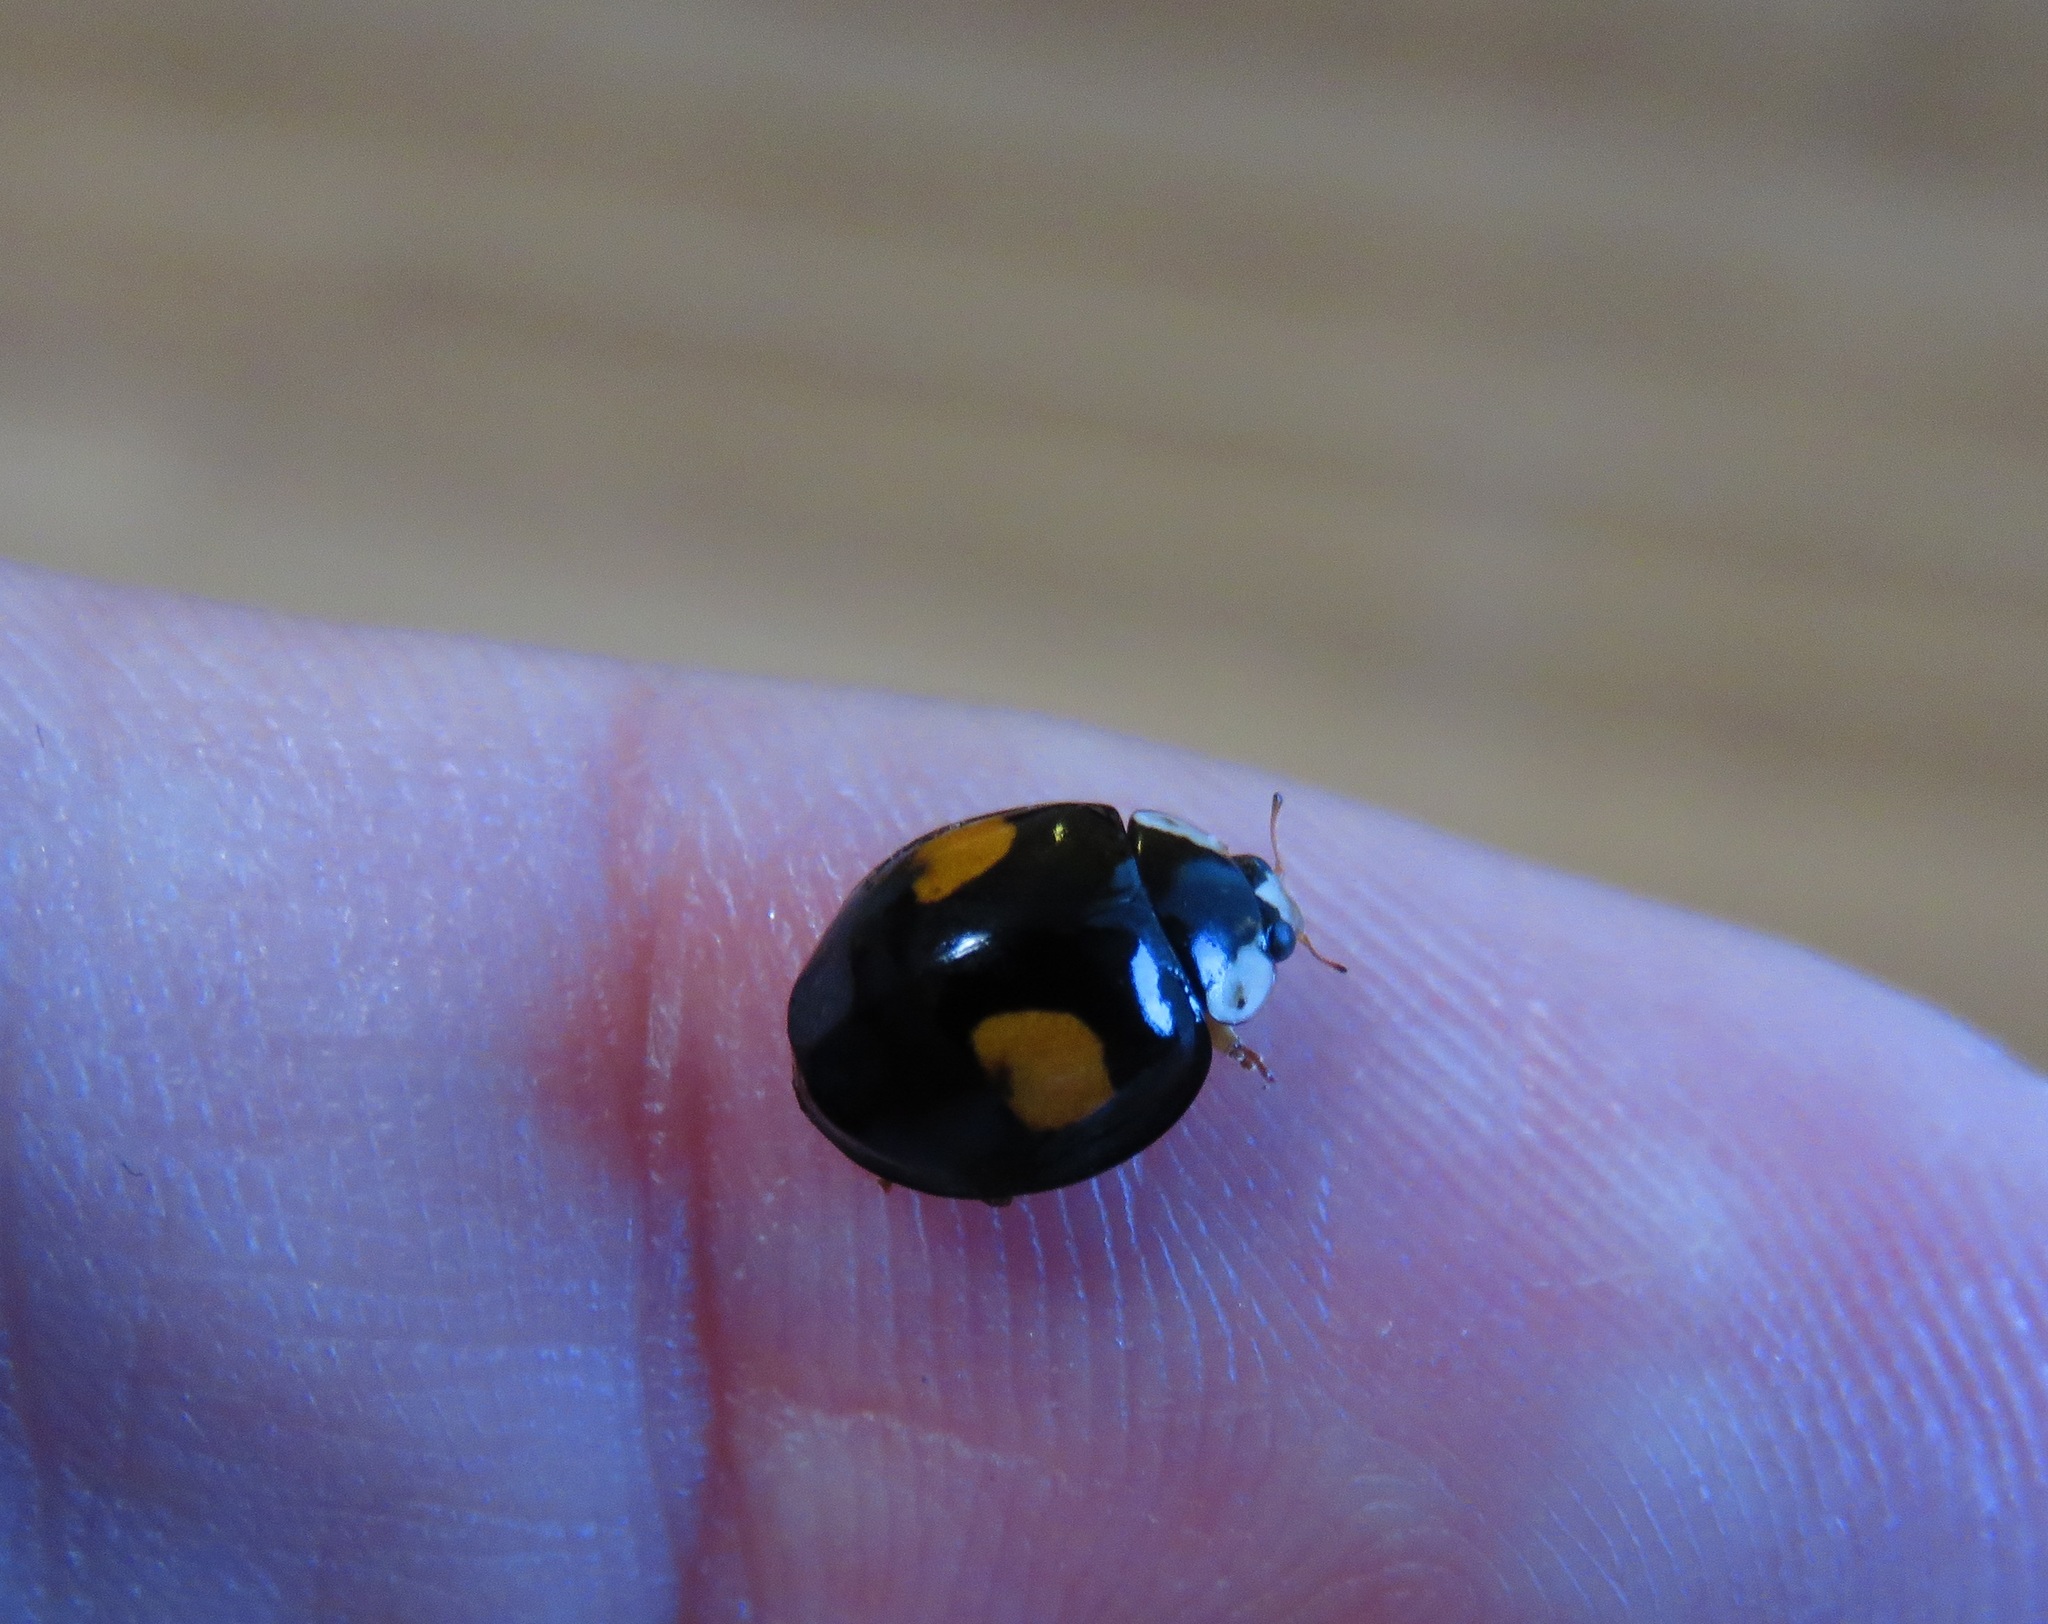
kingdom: Animalia
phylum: Arthropoda
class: Insecta
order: Coleoptera
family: Coccinellidae
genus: Harmonia
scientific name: Harmonia axyridis
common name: Harlequin ladybird
